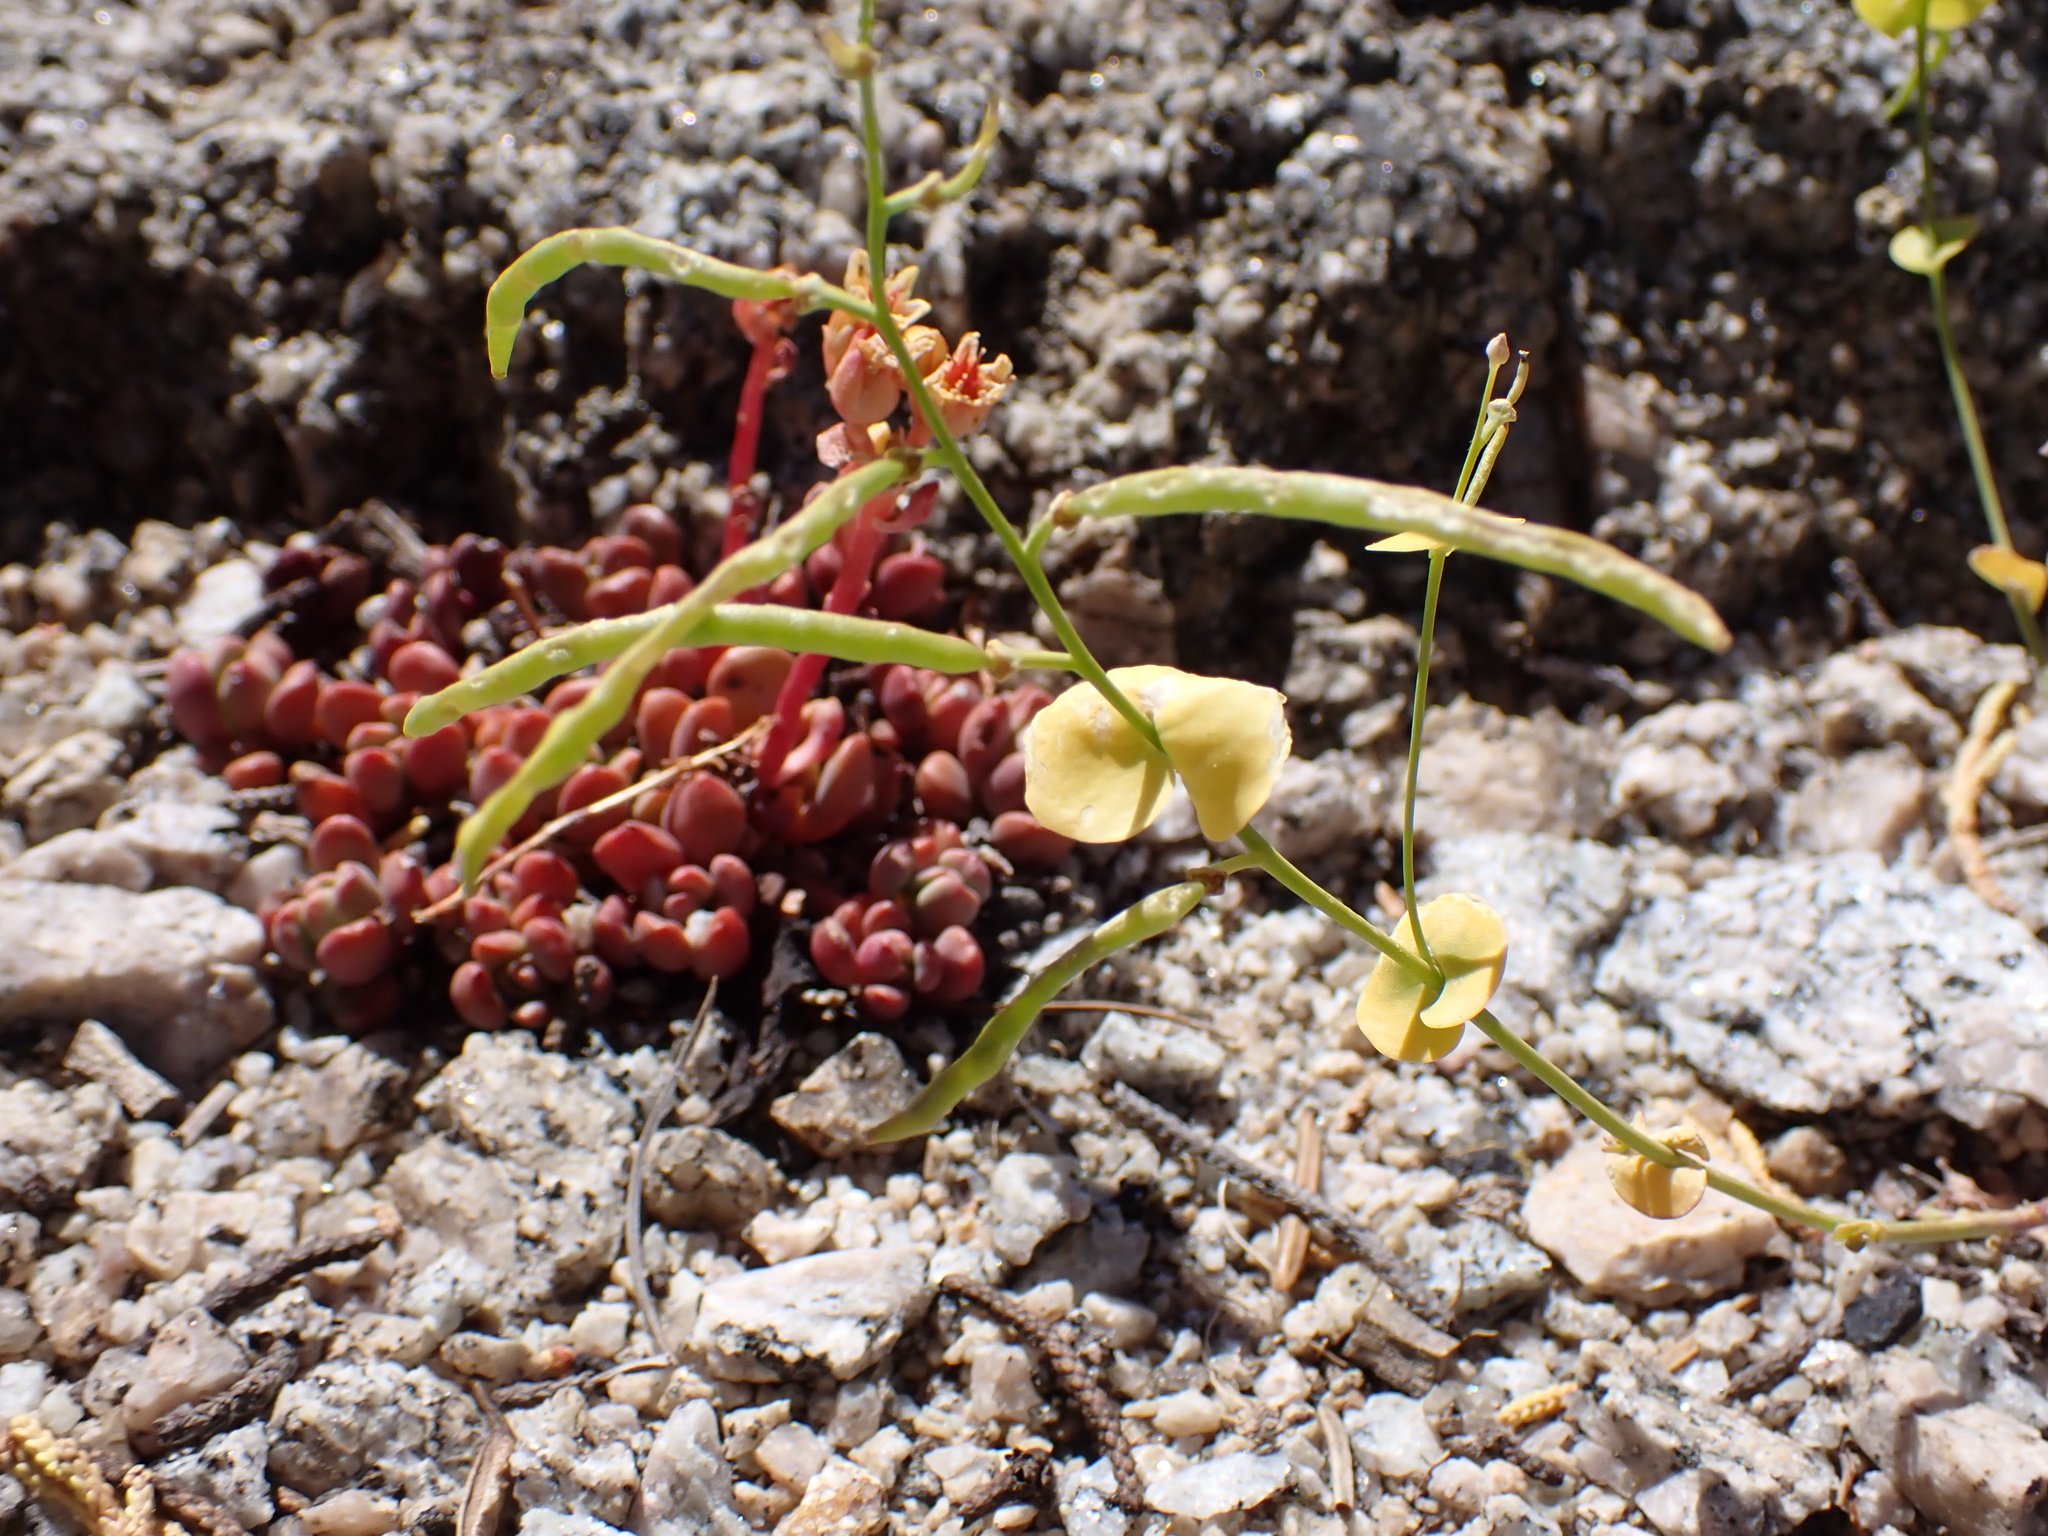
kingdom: Plantae
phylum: Tracheophyta
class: Magnoliopsida
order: Brassicales
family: Brassicaceae
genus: Streptanthus
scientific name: Streptanthus tortuosus
